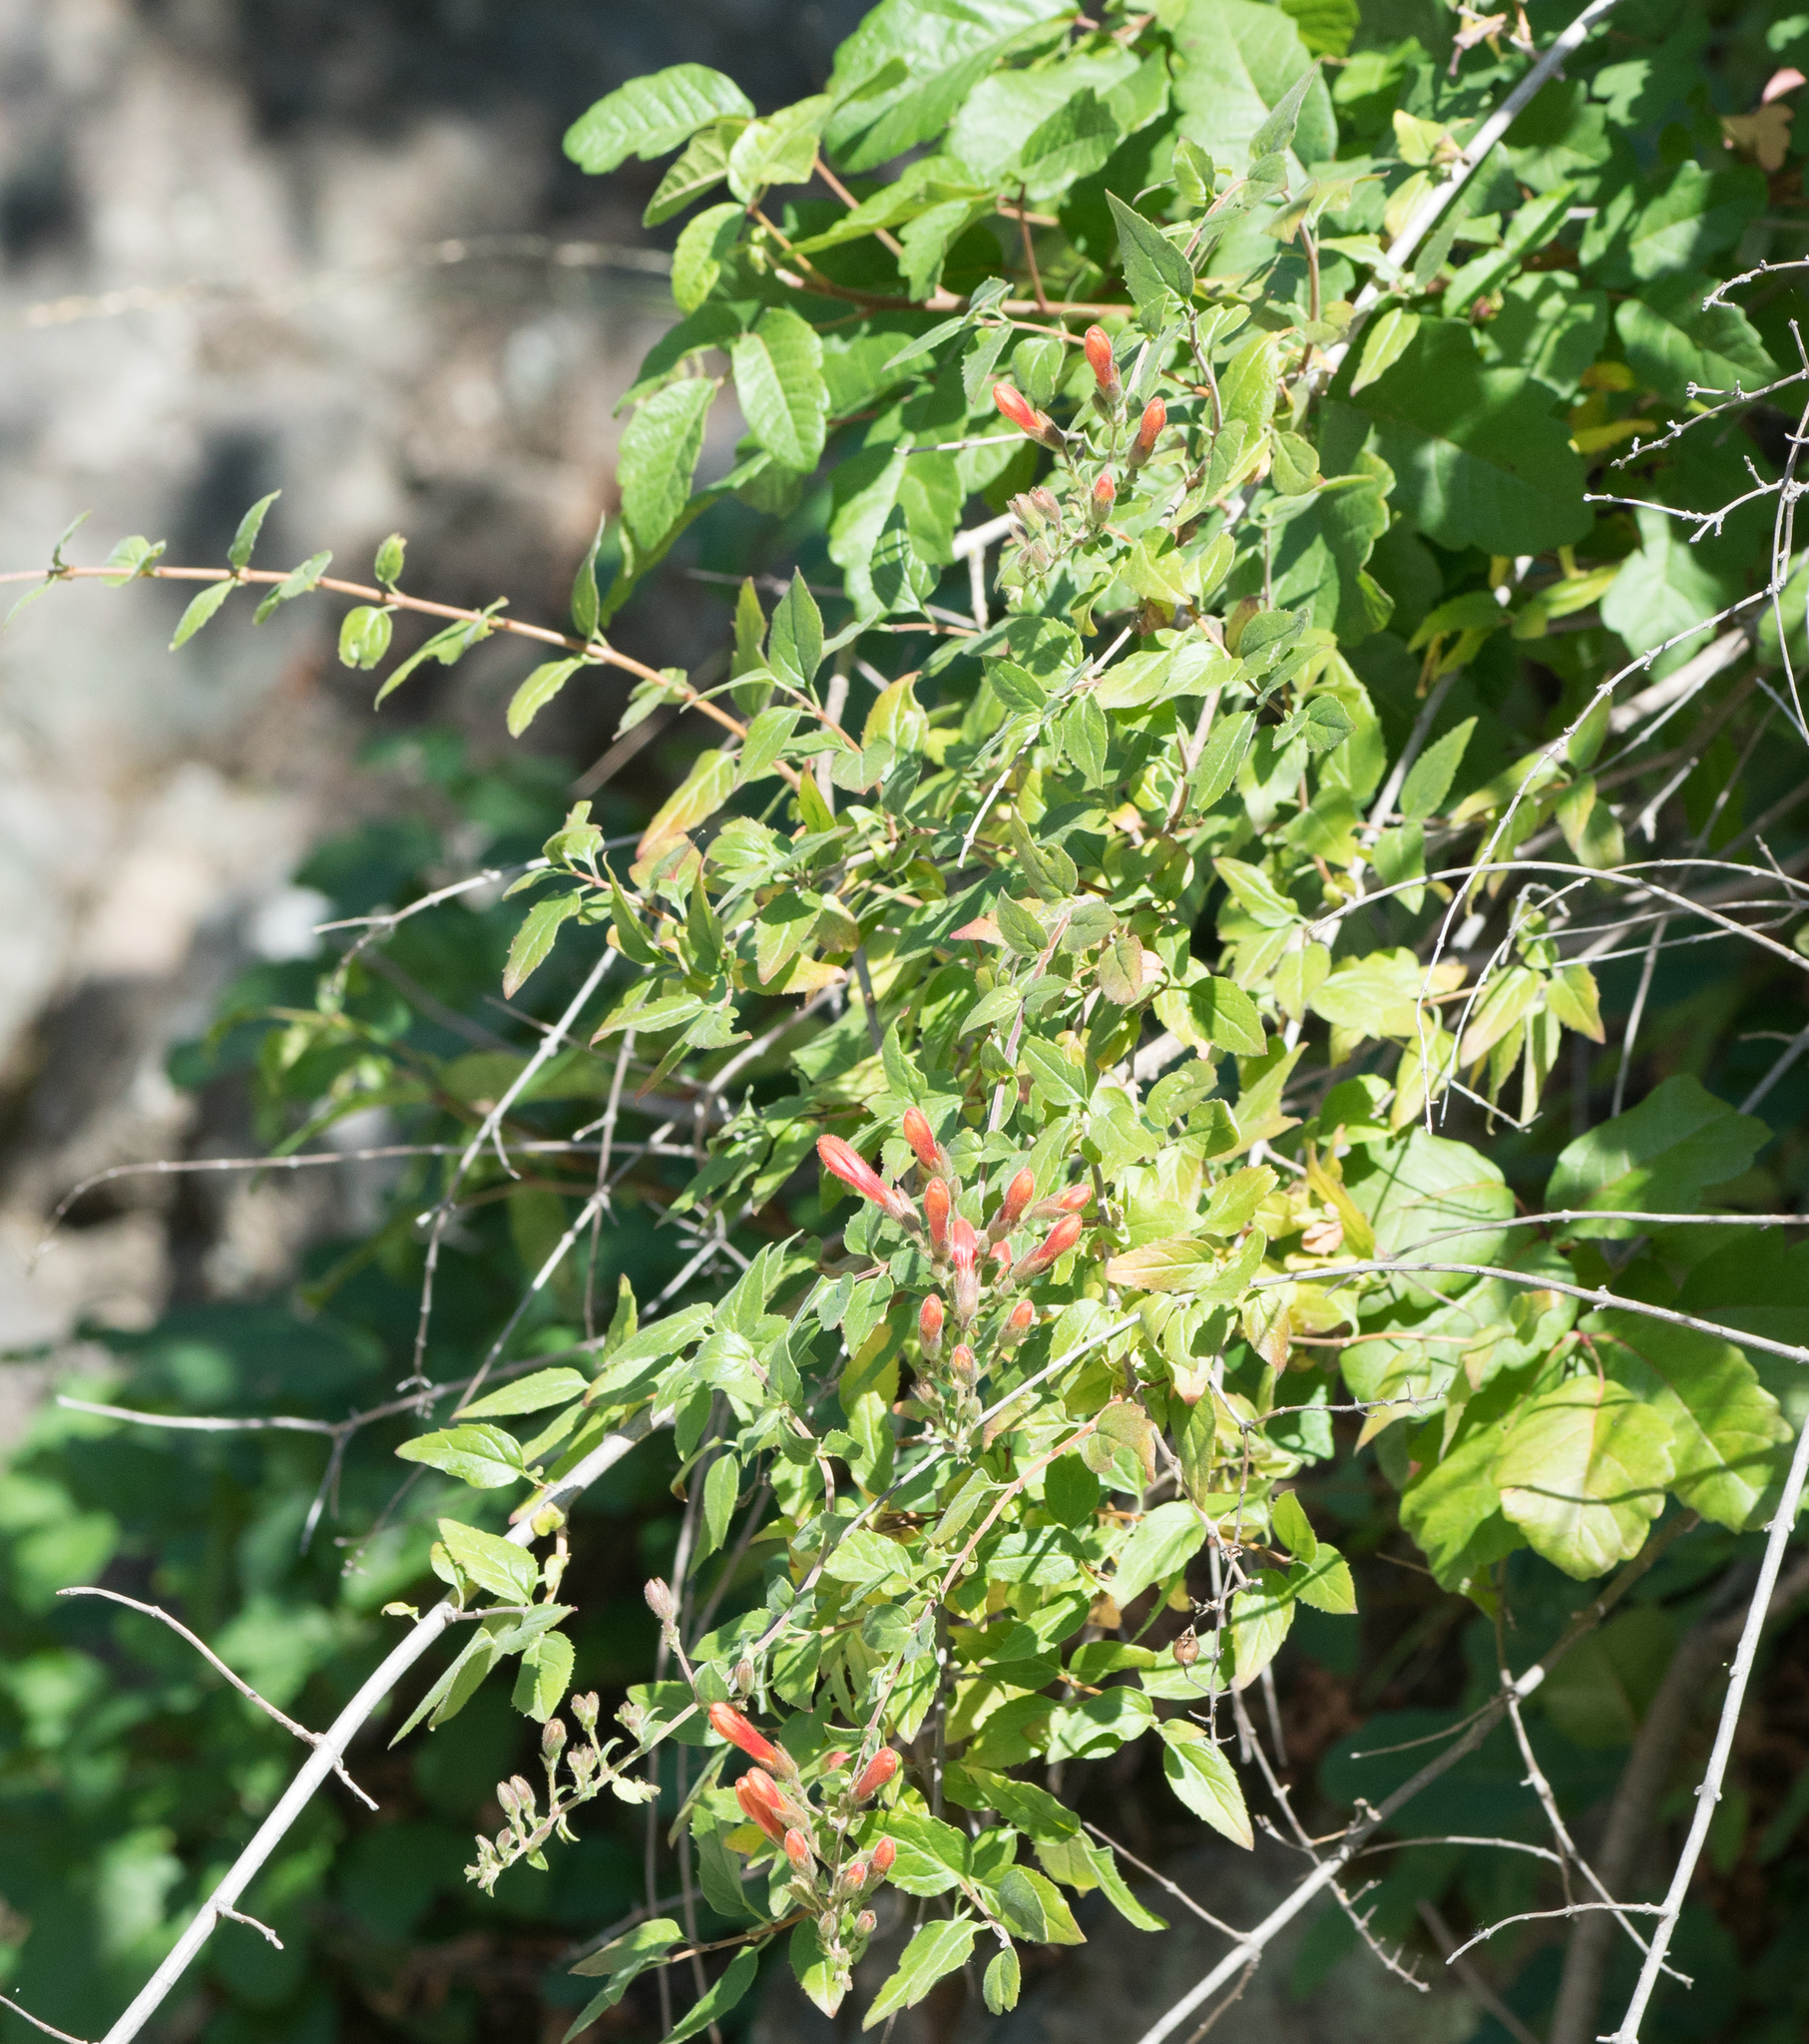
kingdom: Plantae
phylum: Tracheophyta
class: Magnoliopsida
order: Lamiales
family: Plantaginaceae
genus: Keckiella
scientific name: Keckiella cordifolia
